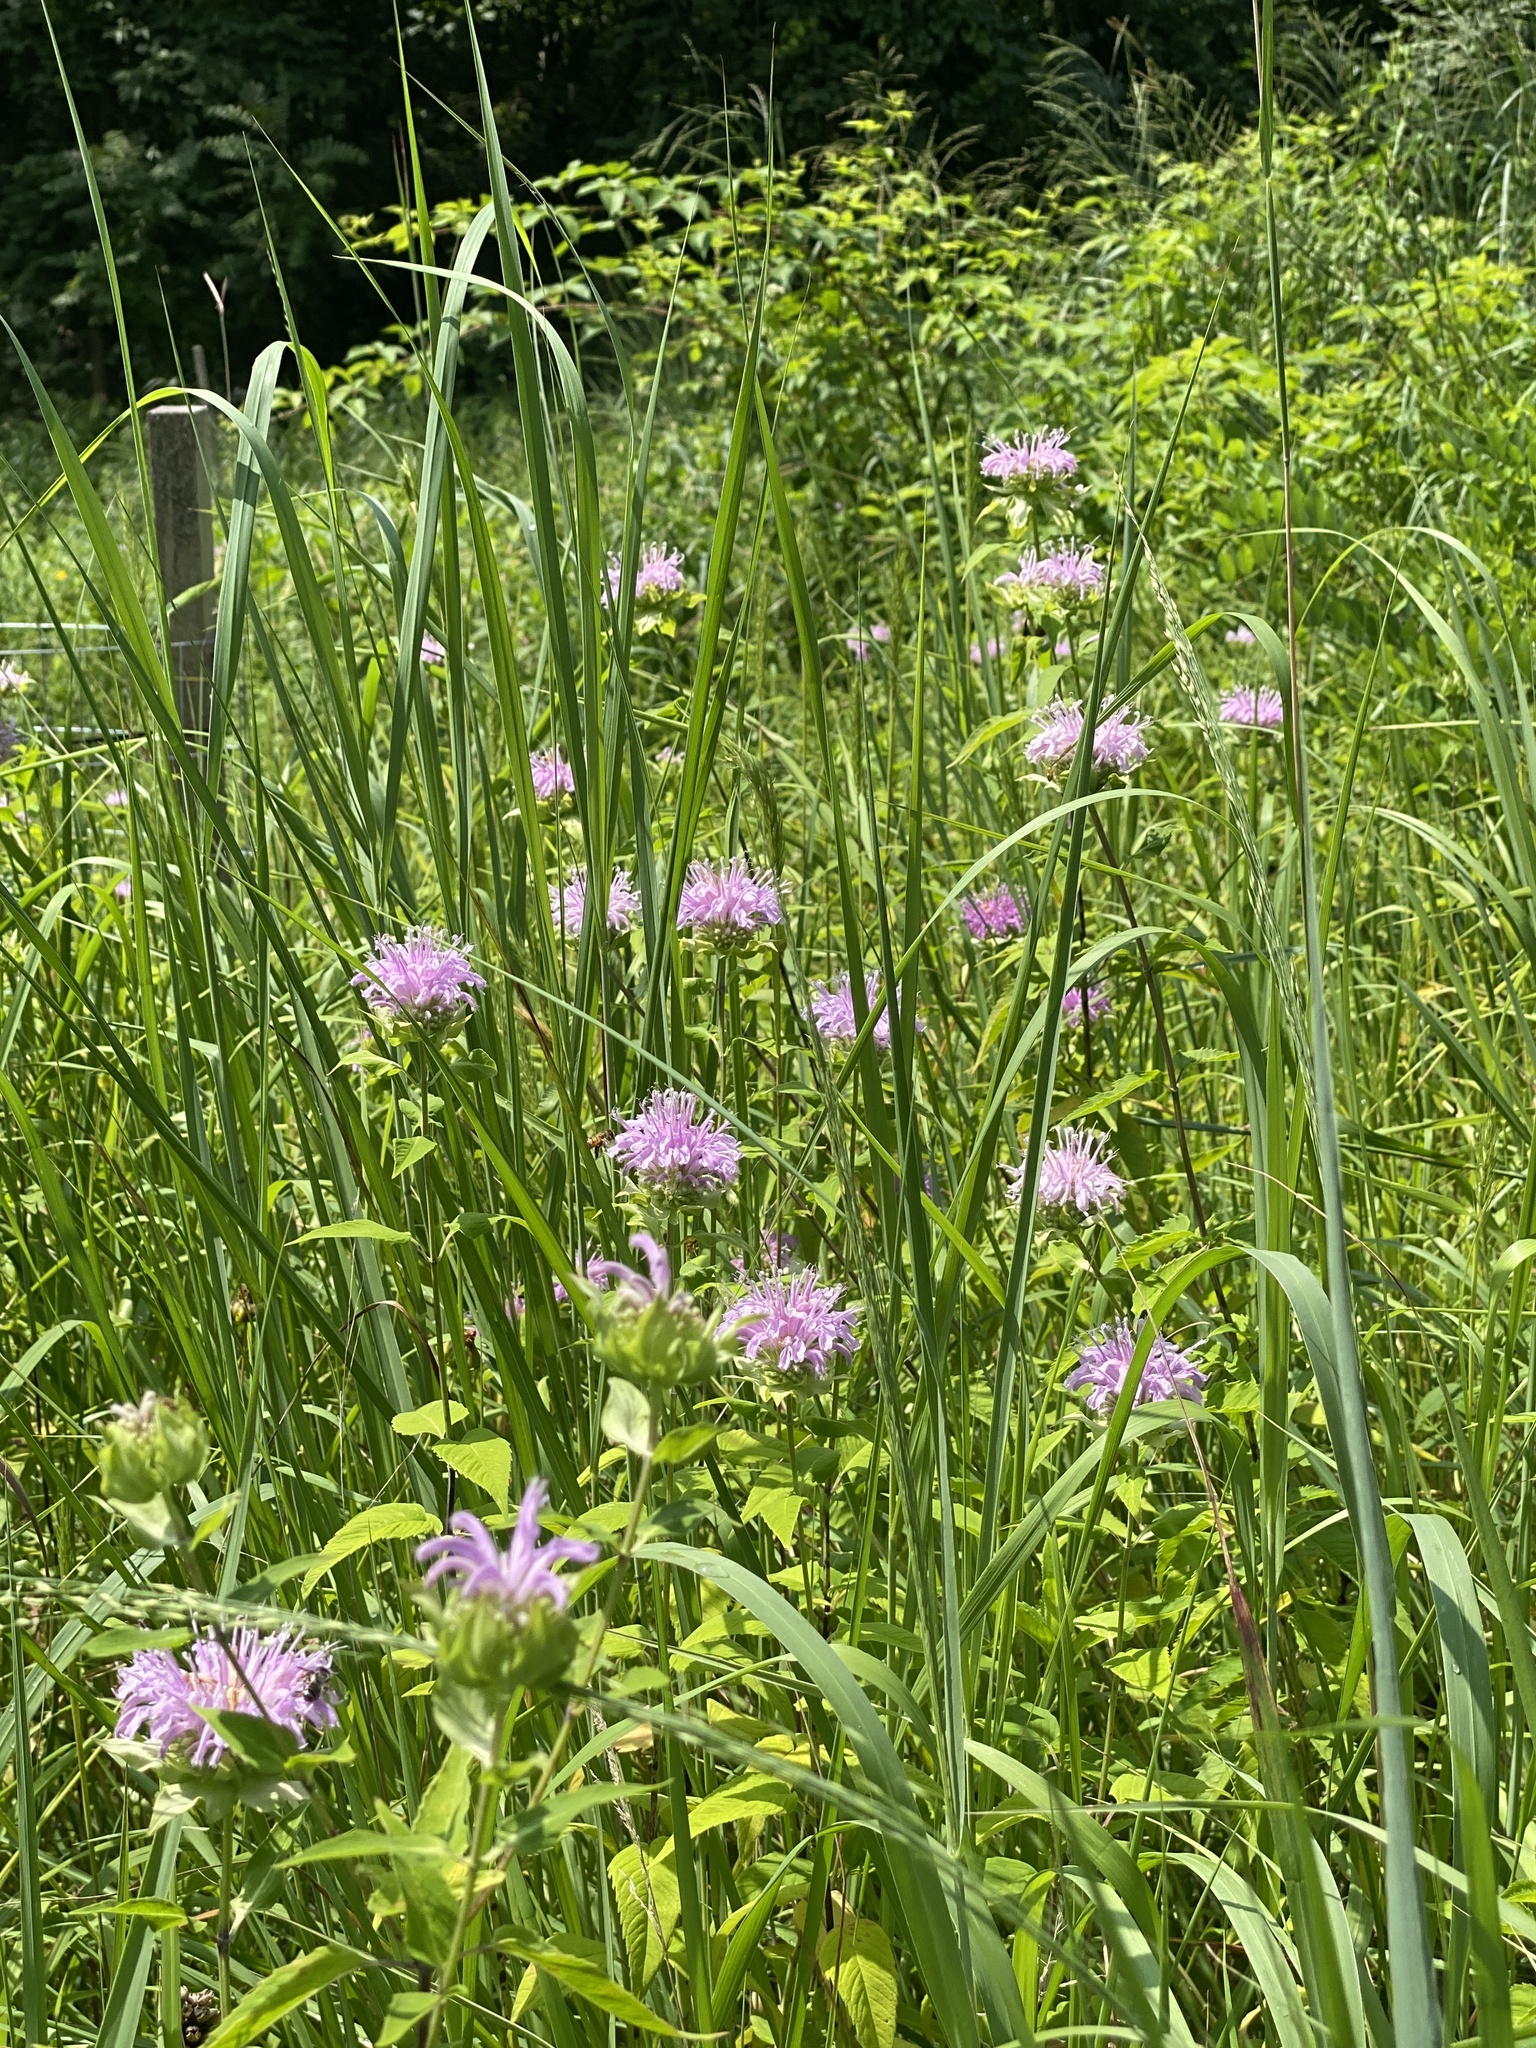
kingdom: Plantae
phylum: Tracheophyta
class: Magnoliopsida
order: Lamiales
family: Lamiaceae
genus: Monarda
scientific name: Monarda fistulosa
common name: Purple beebalm
